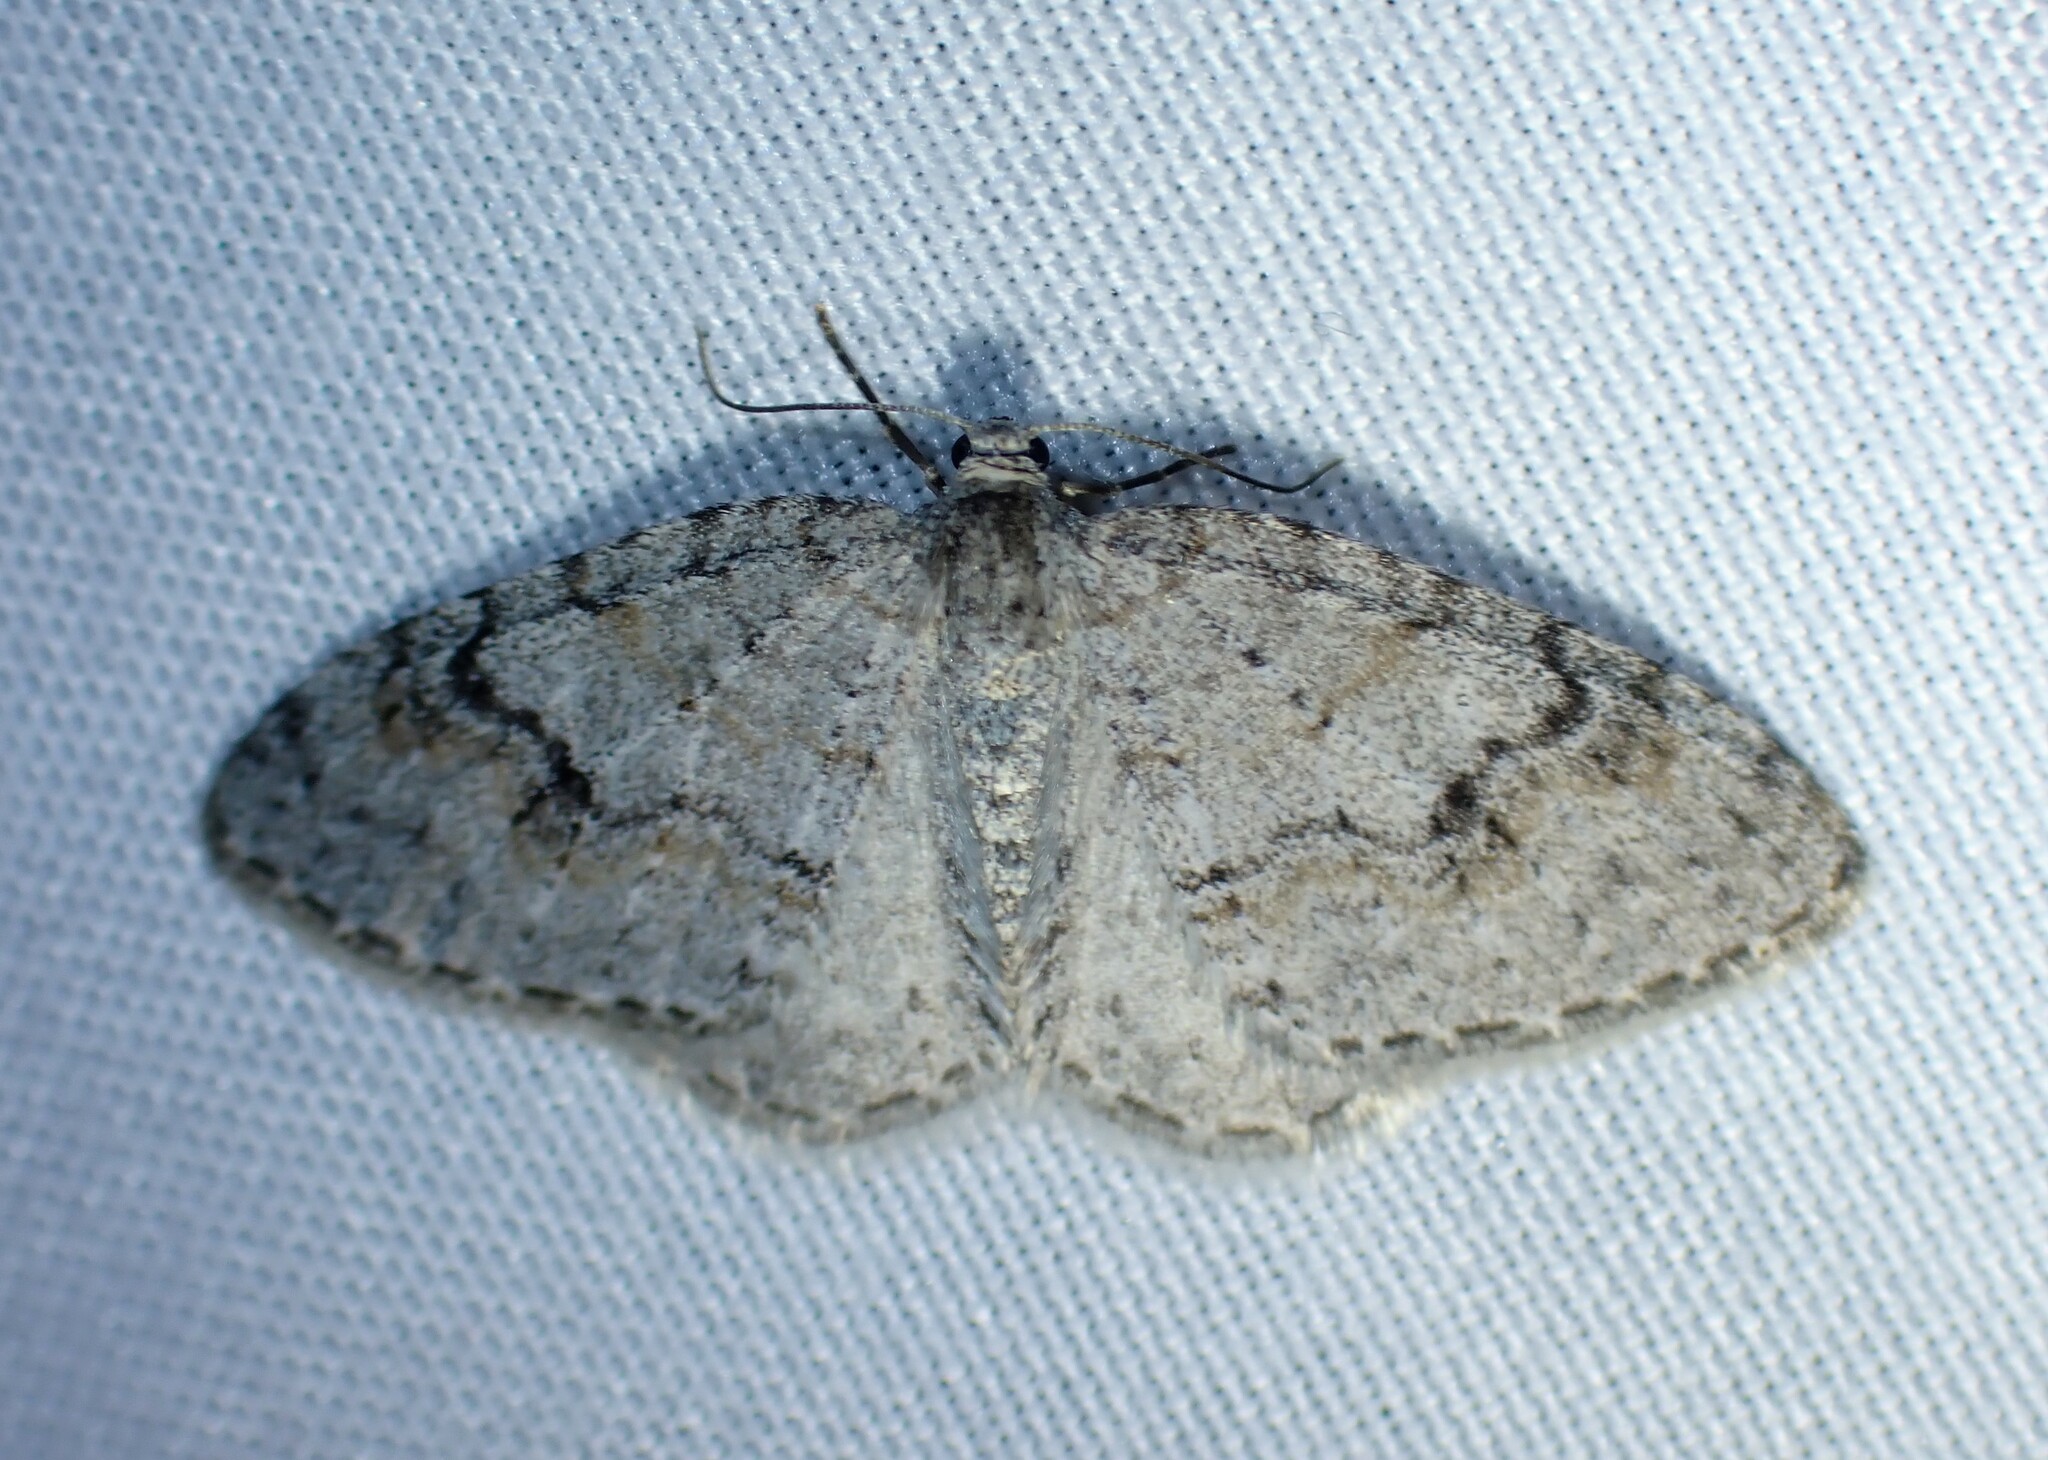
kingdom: Animalia
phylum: Arthropoda
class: Insecta
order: Lepidoptera
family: Geometridae
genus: Venusia
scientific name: Venusia comptaria
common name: Brown-shaded carpet
